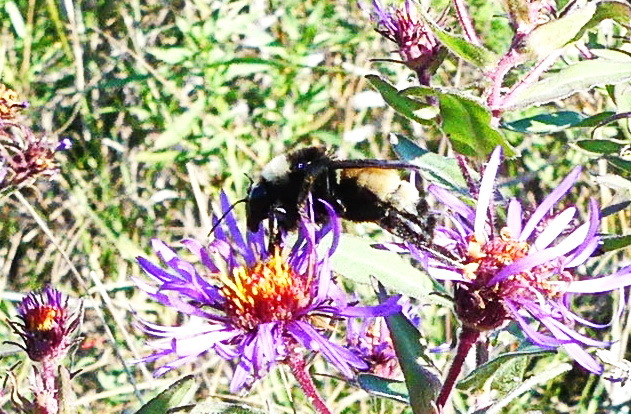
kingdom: Animalia
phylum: Arthropoda
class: Insecta
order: Hymenoptera
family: Apidae
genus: Bombus
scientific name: Bombus pensylvanicus
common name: Bumble bee
